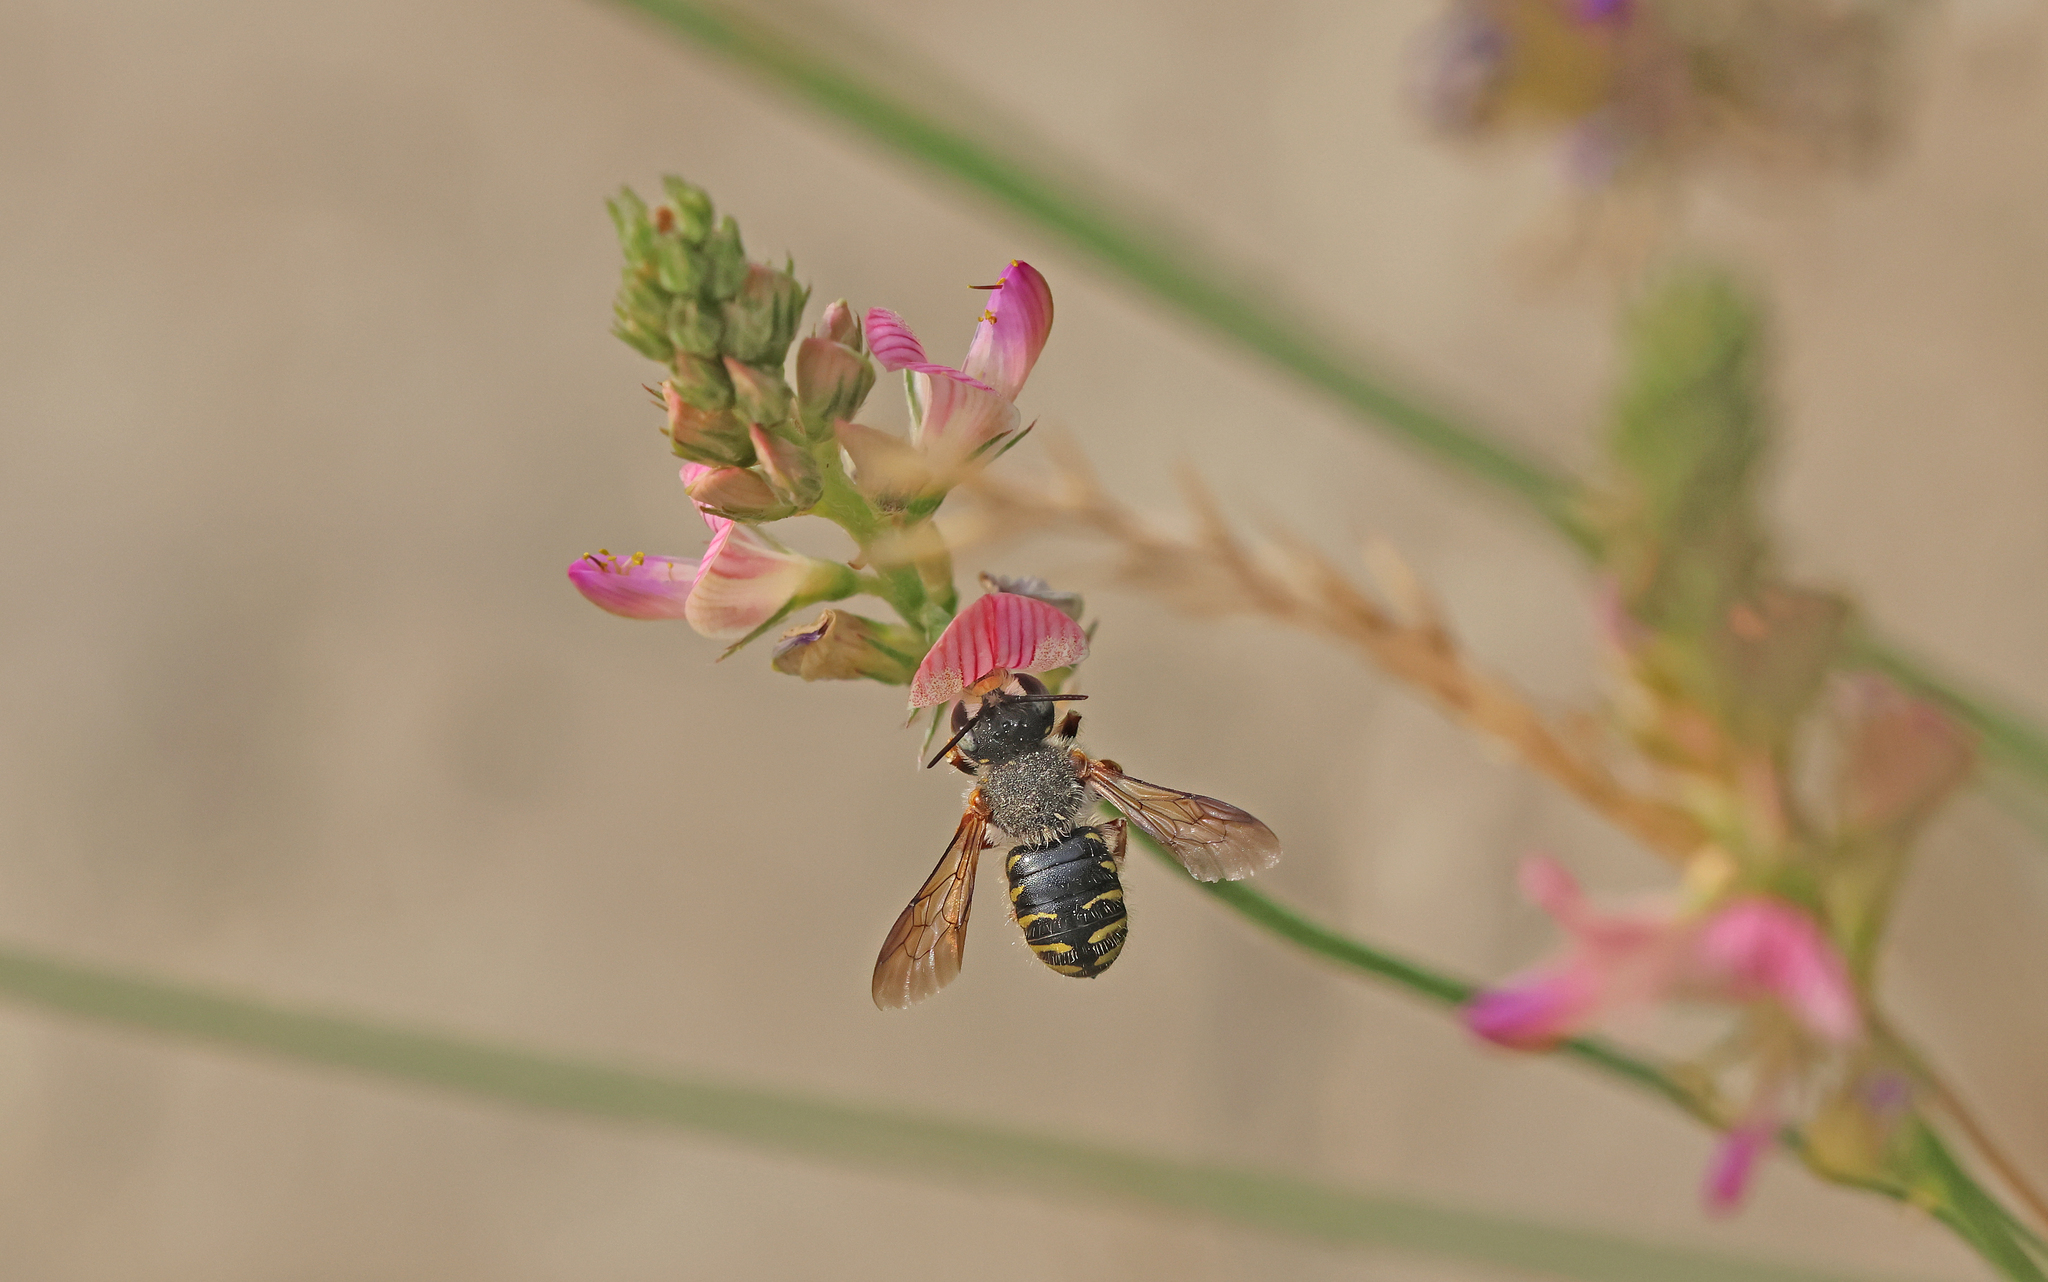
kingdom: Animalia
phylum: Arthropoda
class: Insecta
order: Hymenoptera
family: Megachilidae
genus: Anthidium
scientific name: Anthidium oblongatum
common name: Oblong wool carder bee
